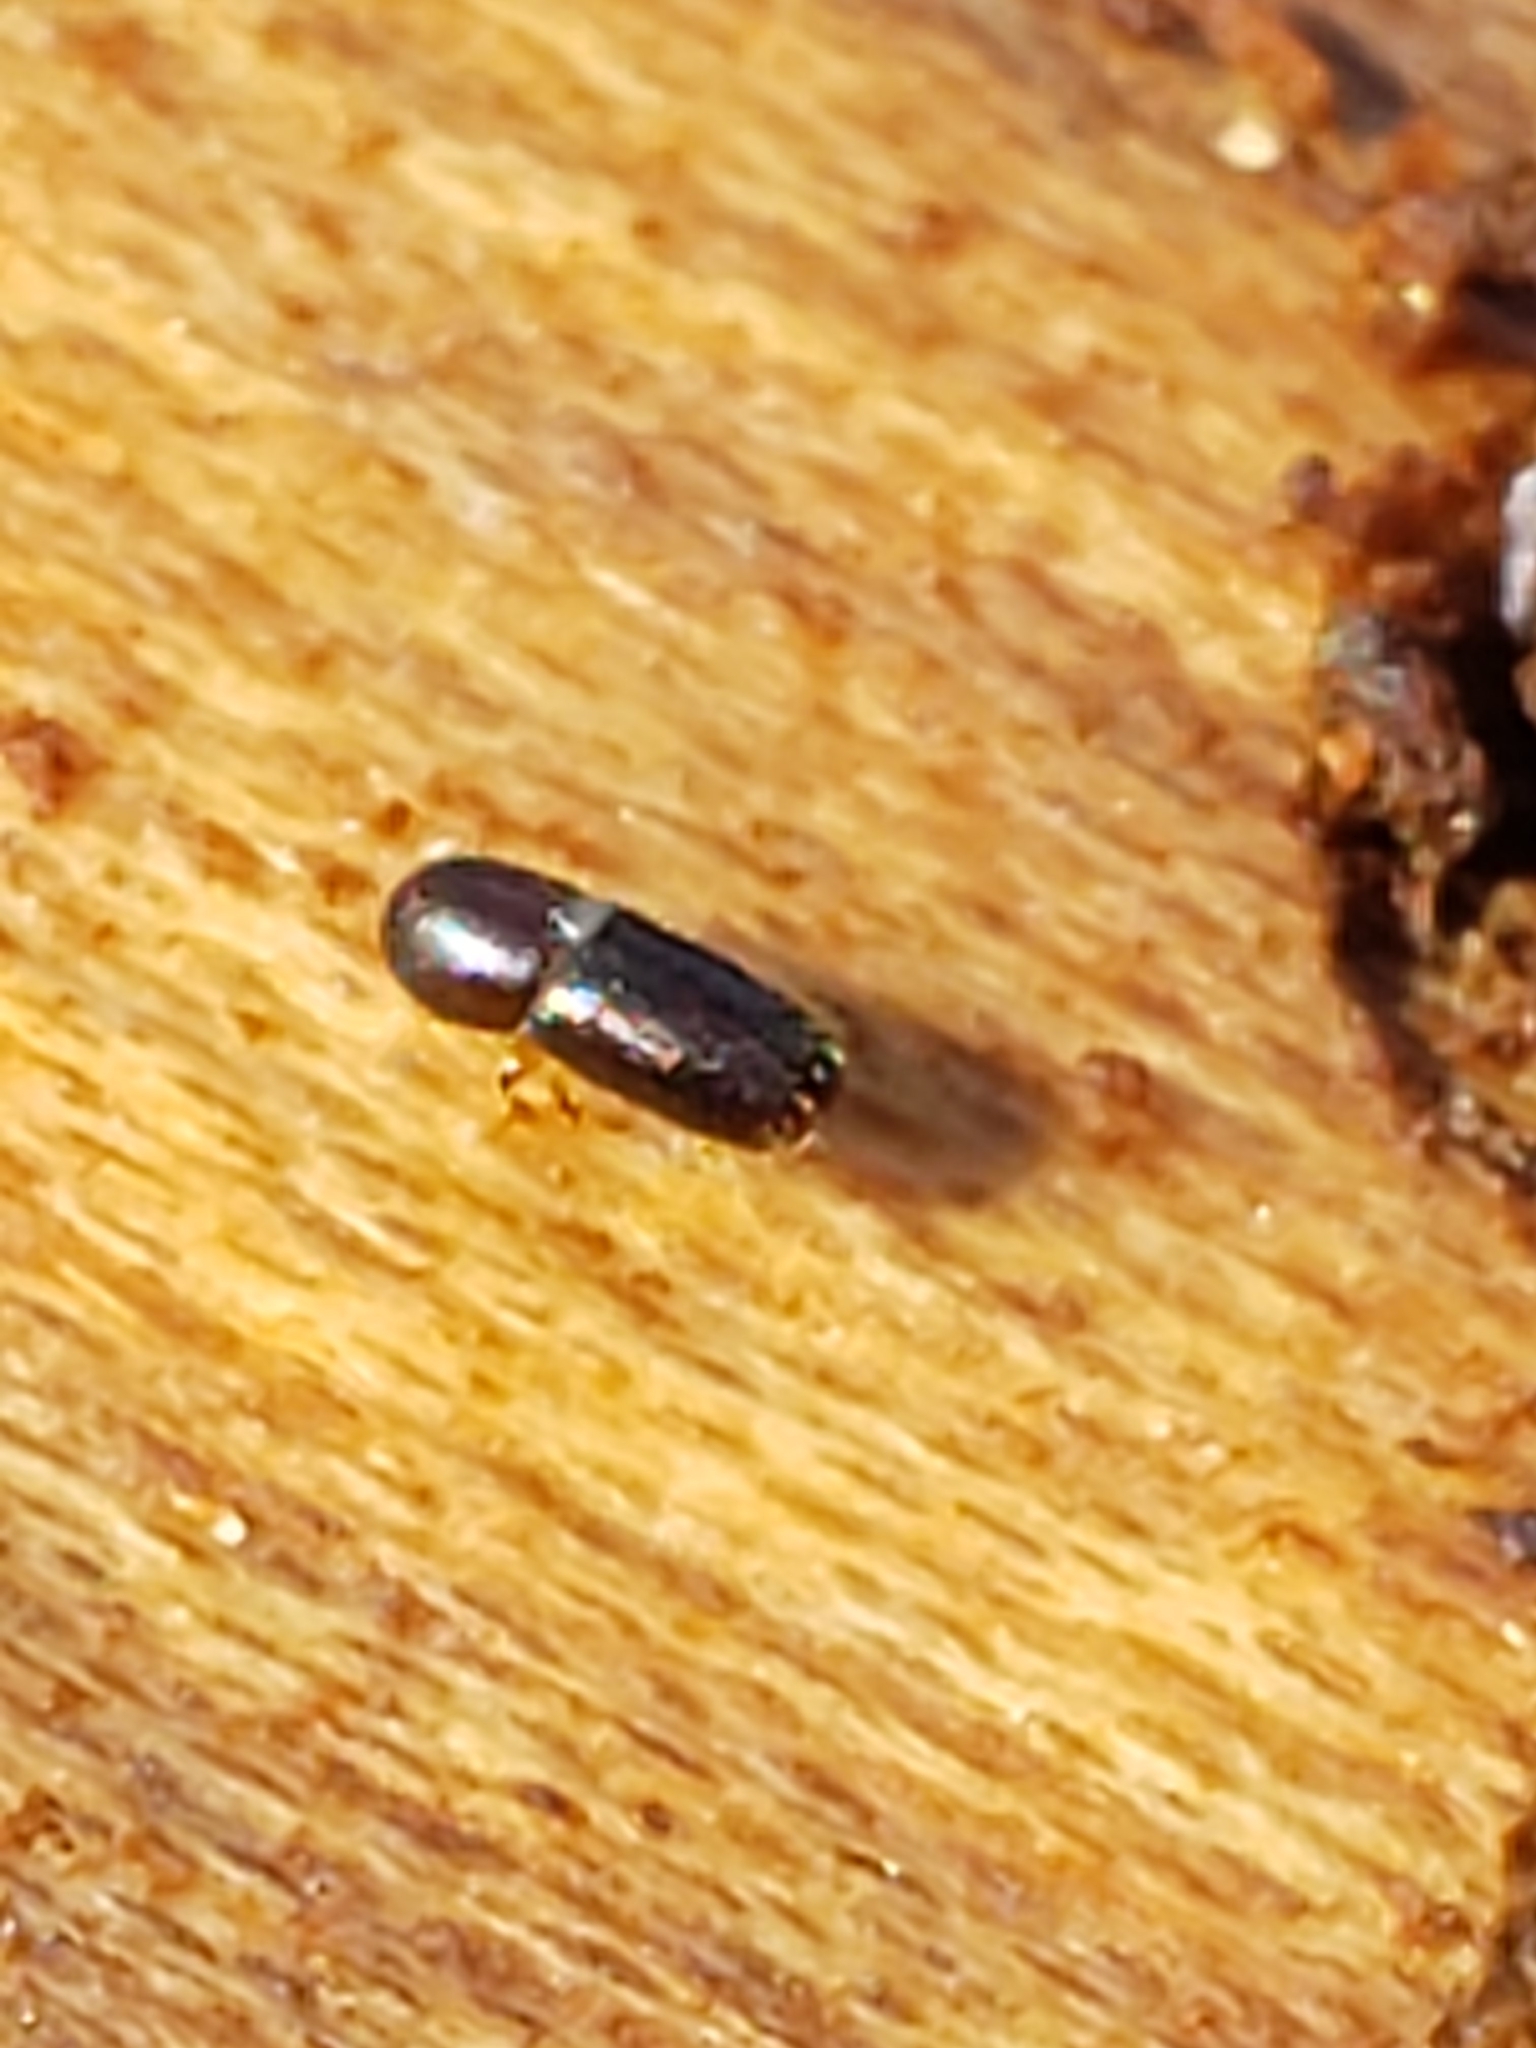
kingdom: Animalia
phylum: Arthropoda
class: Insecta
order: Coleoptera
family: Curculionidae
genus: Monarthrum
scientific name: Monarthrum mali
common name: Bark beetle
